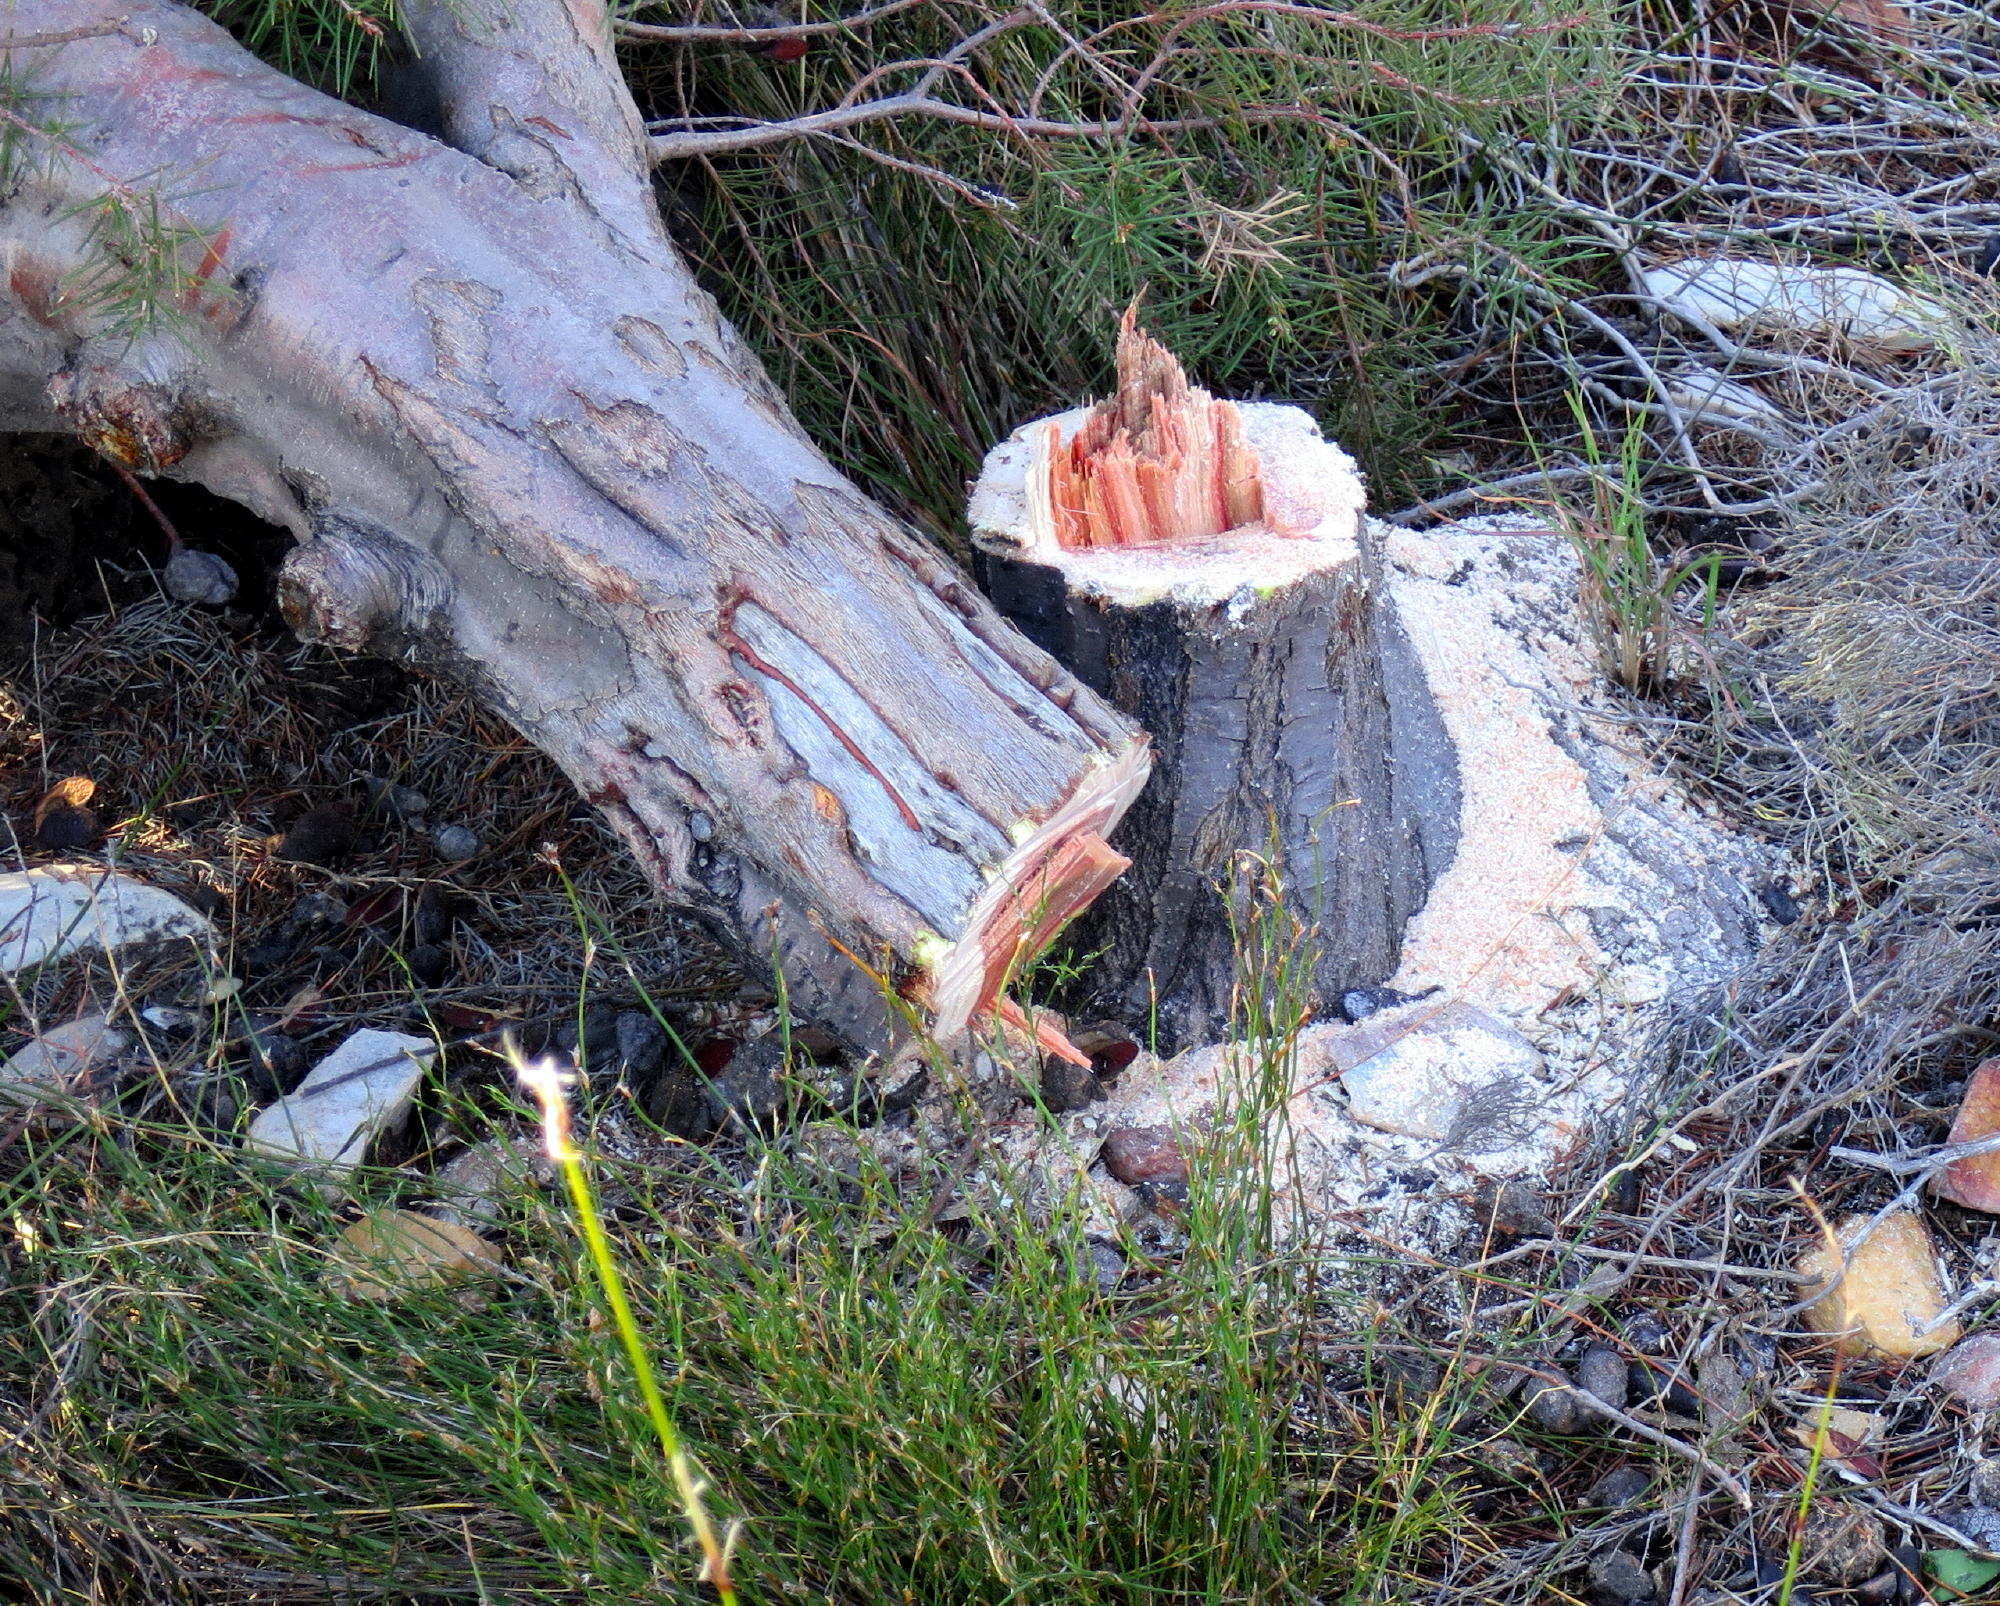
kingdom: Plantae
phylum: Tracheophyta
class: Magnoliopsida
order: Proteales
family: Proteaceae
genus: Hakea
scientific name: Hakea sericea
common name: Needle bush
